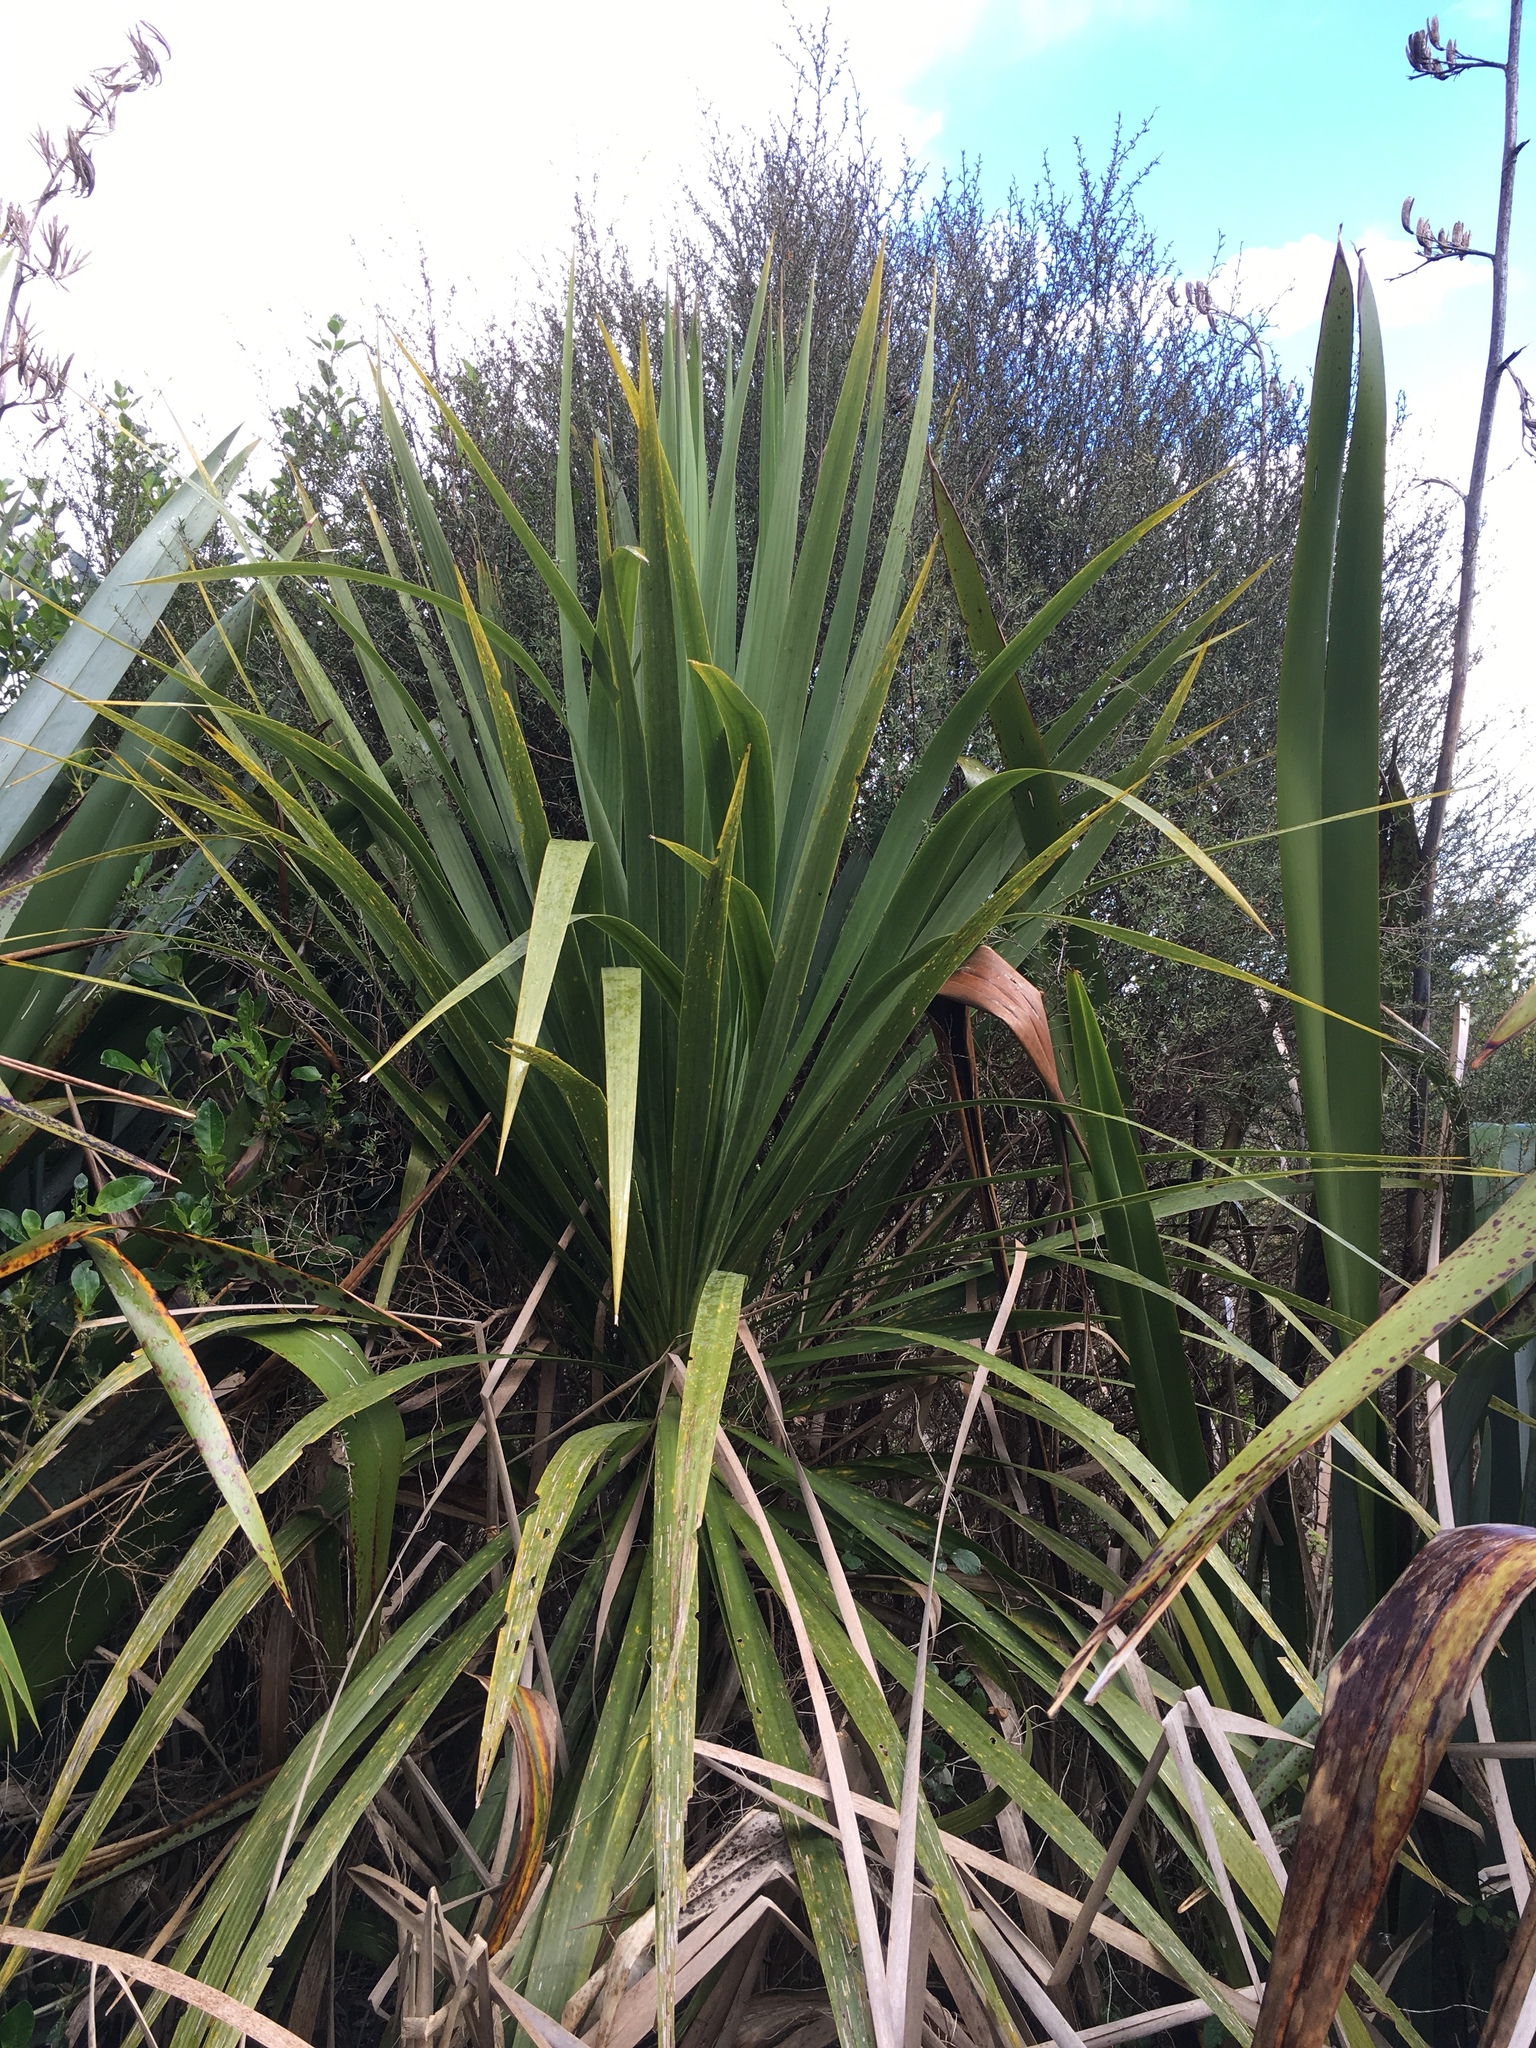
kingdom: Plantae
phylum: Tracheophyta
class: Liliopsida
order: Asparagales
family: Asparagaceae
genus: Cordyline
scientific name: Cordyline australis
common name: Cabbage-palm
